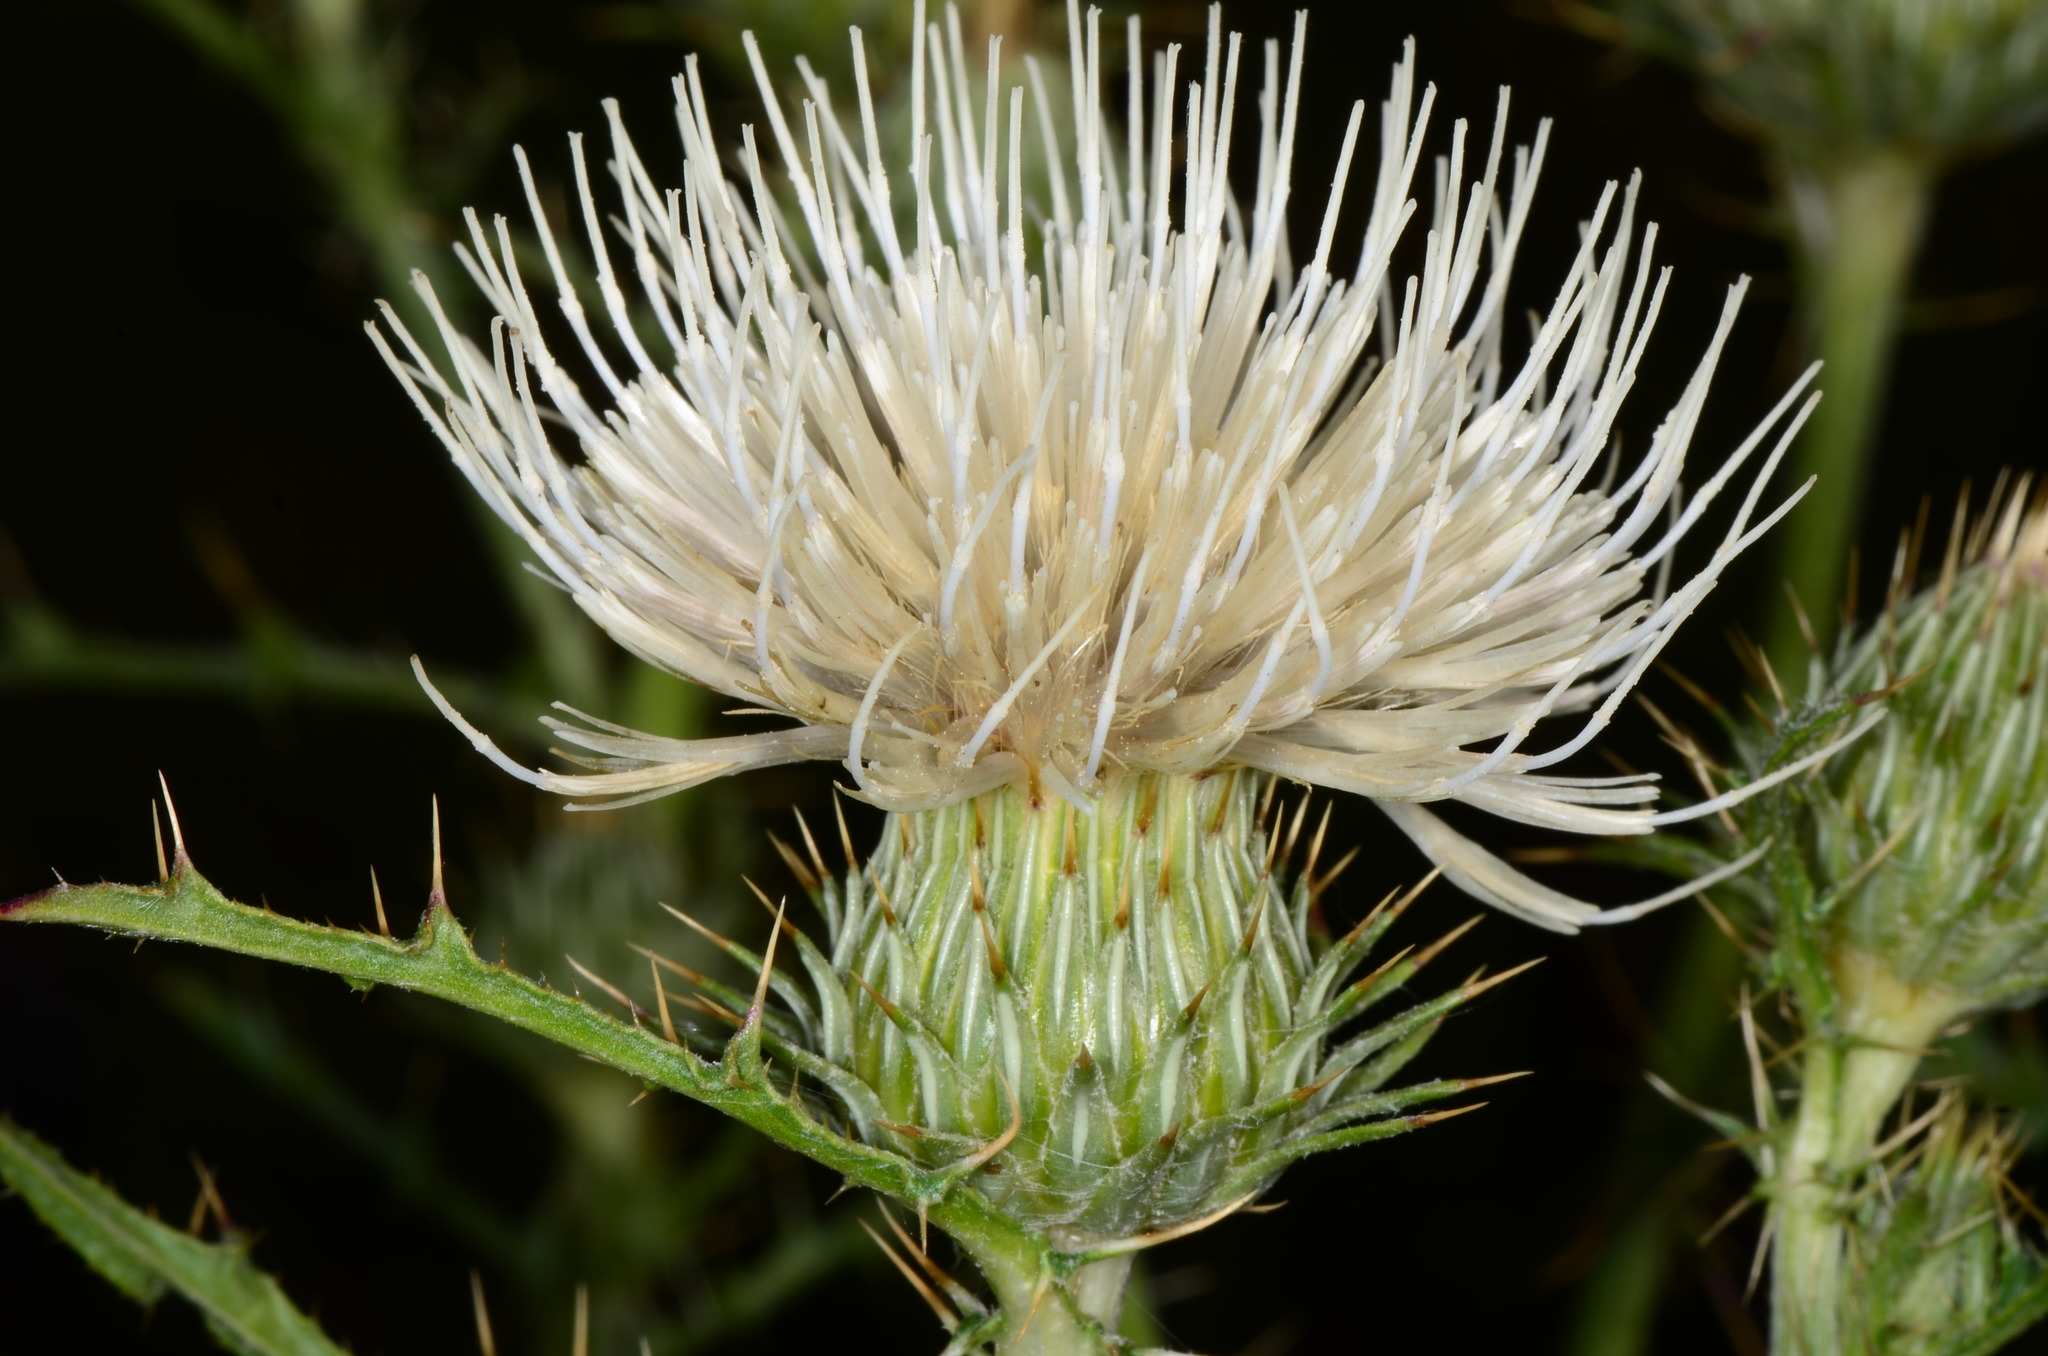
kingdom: Plantae
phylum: Tracheophyta
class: Magnoliopsida
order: Asterales
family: Asteraceae
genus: Cirsium
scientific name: Cirsium cymosum
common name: Peregrine thistle
